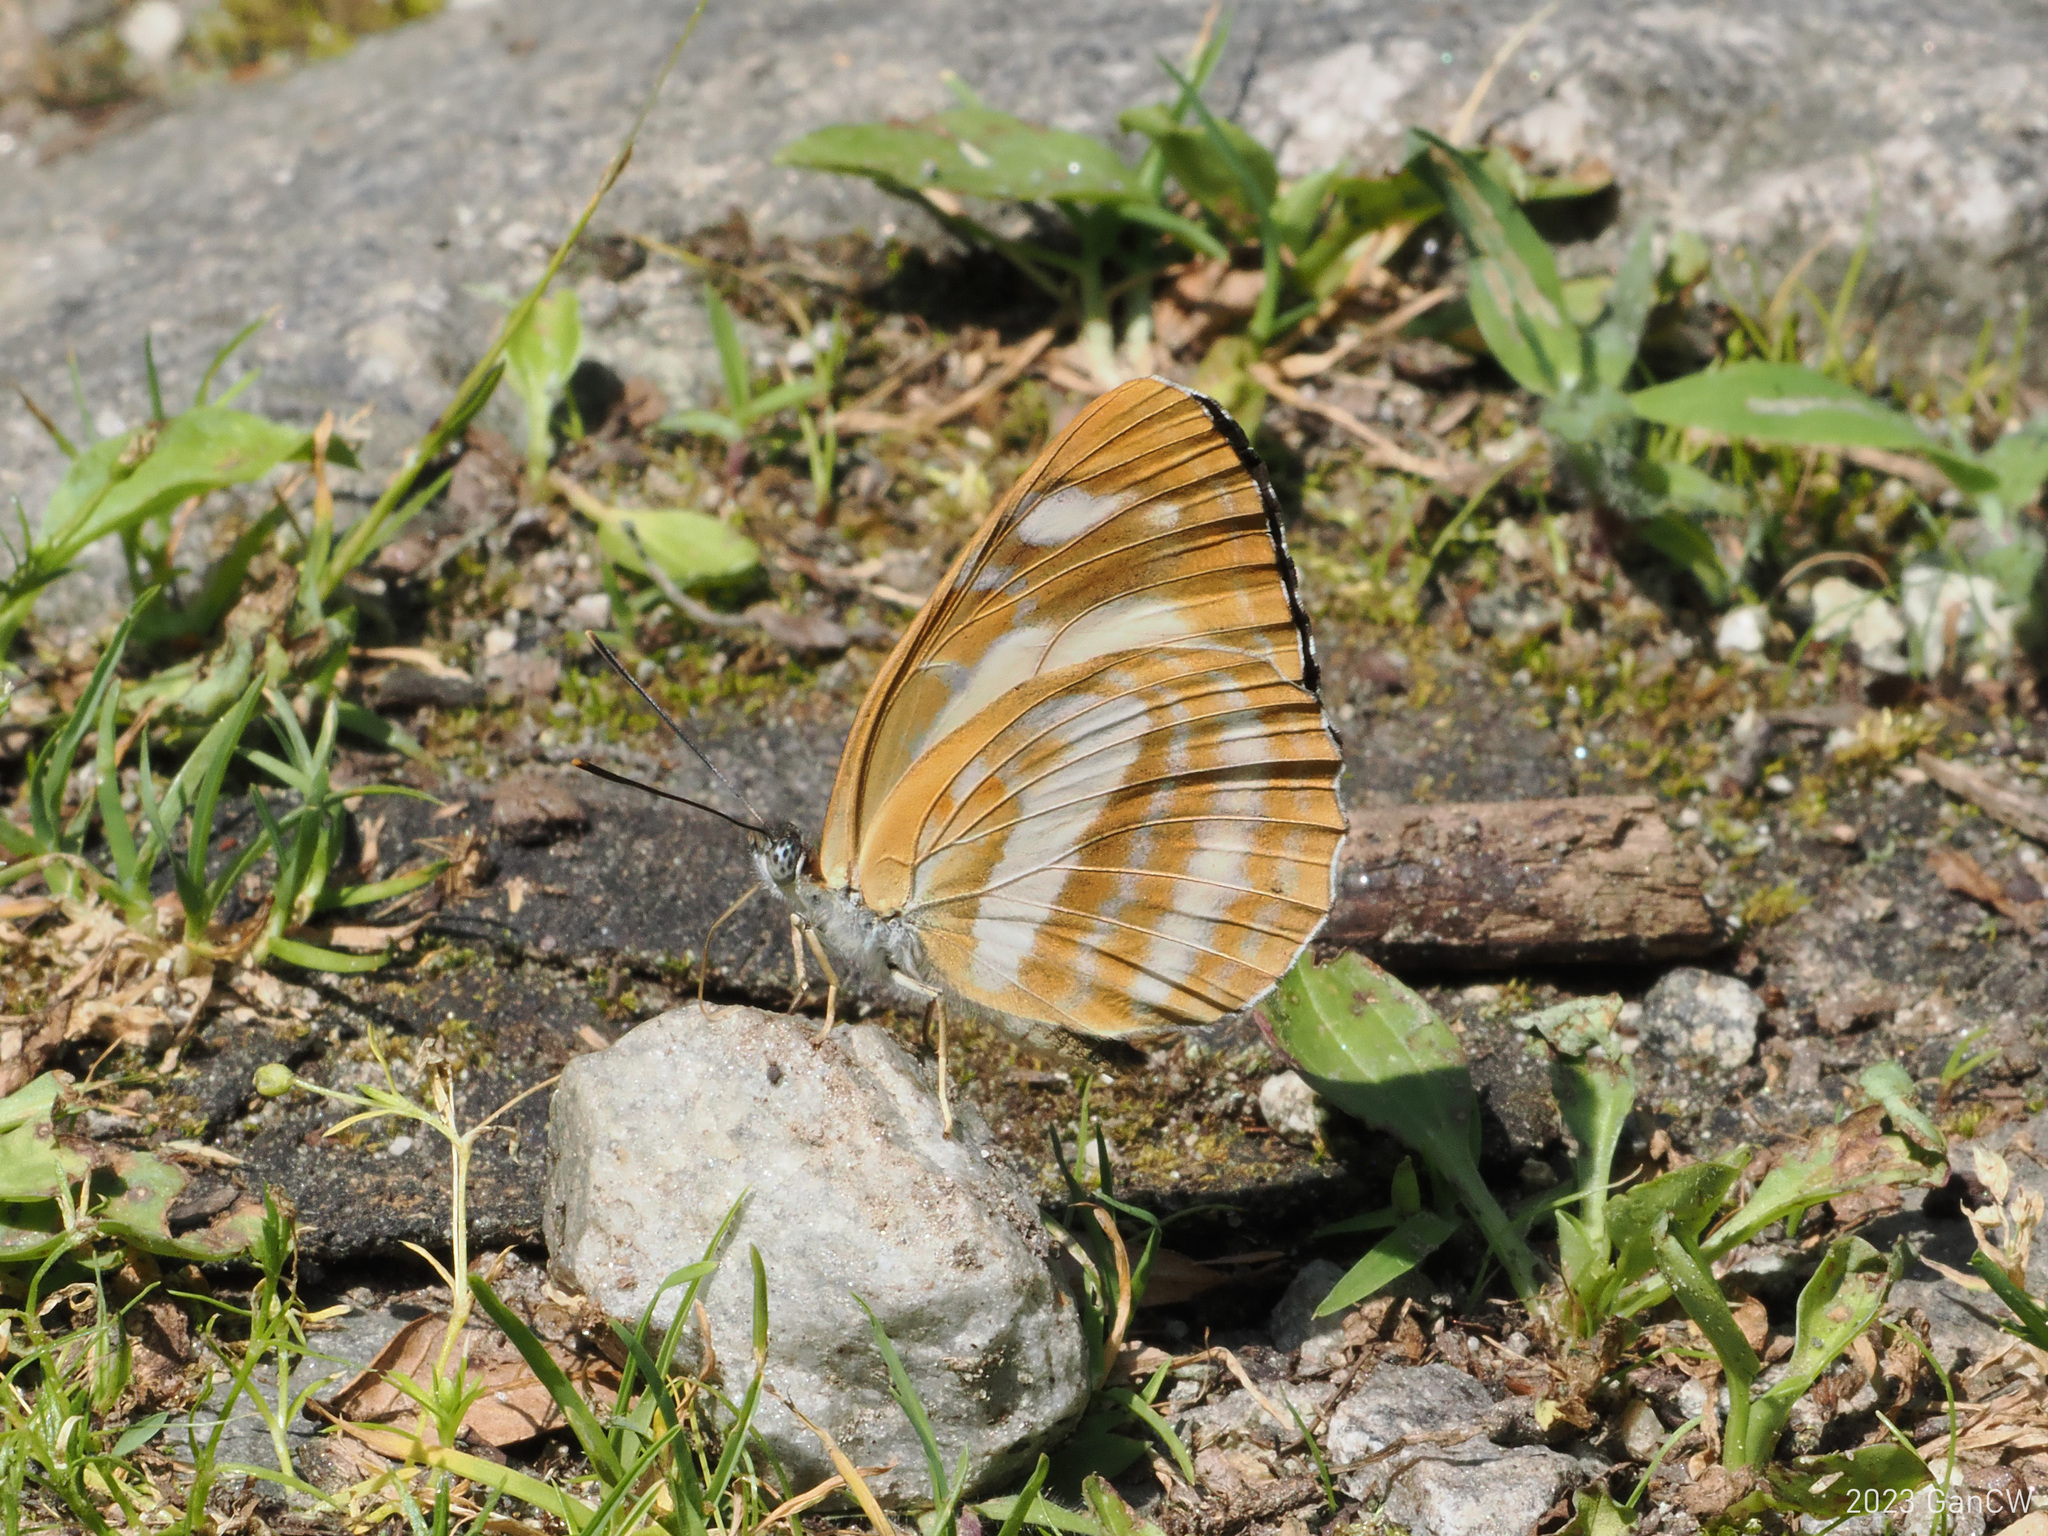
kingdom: Animalia
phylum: Arthropoda
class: Insecta
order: Lepidoptera
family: Nymphalidae
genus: Neptis
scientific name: Neptis manasa
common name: Pale hockeystick sailer
